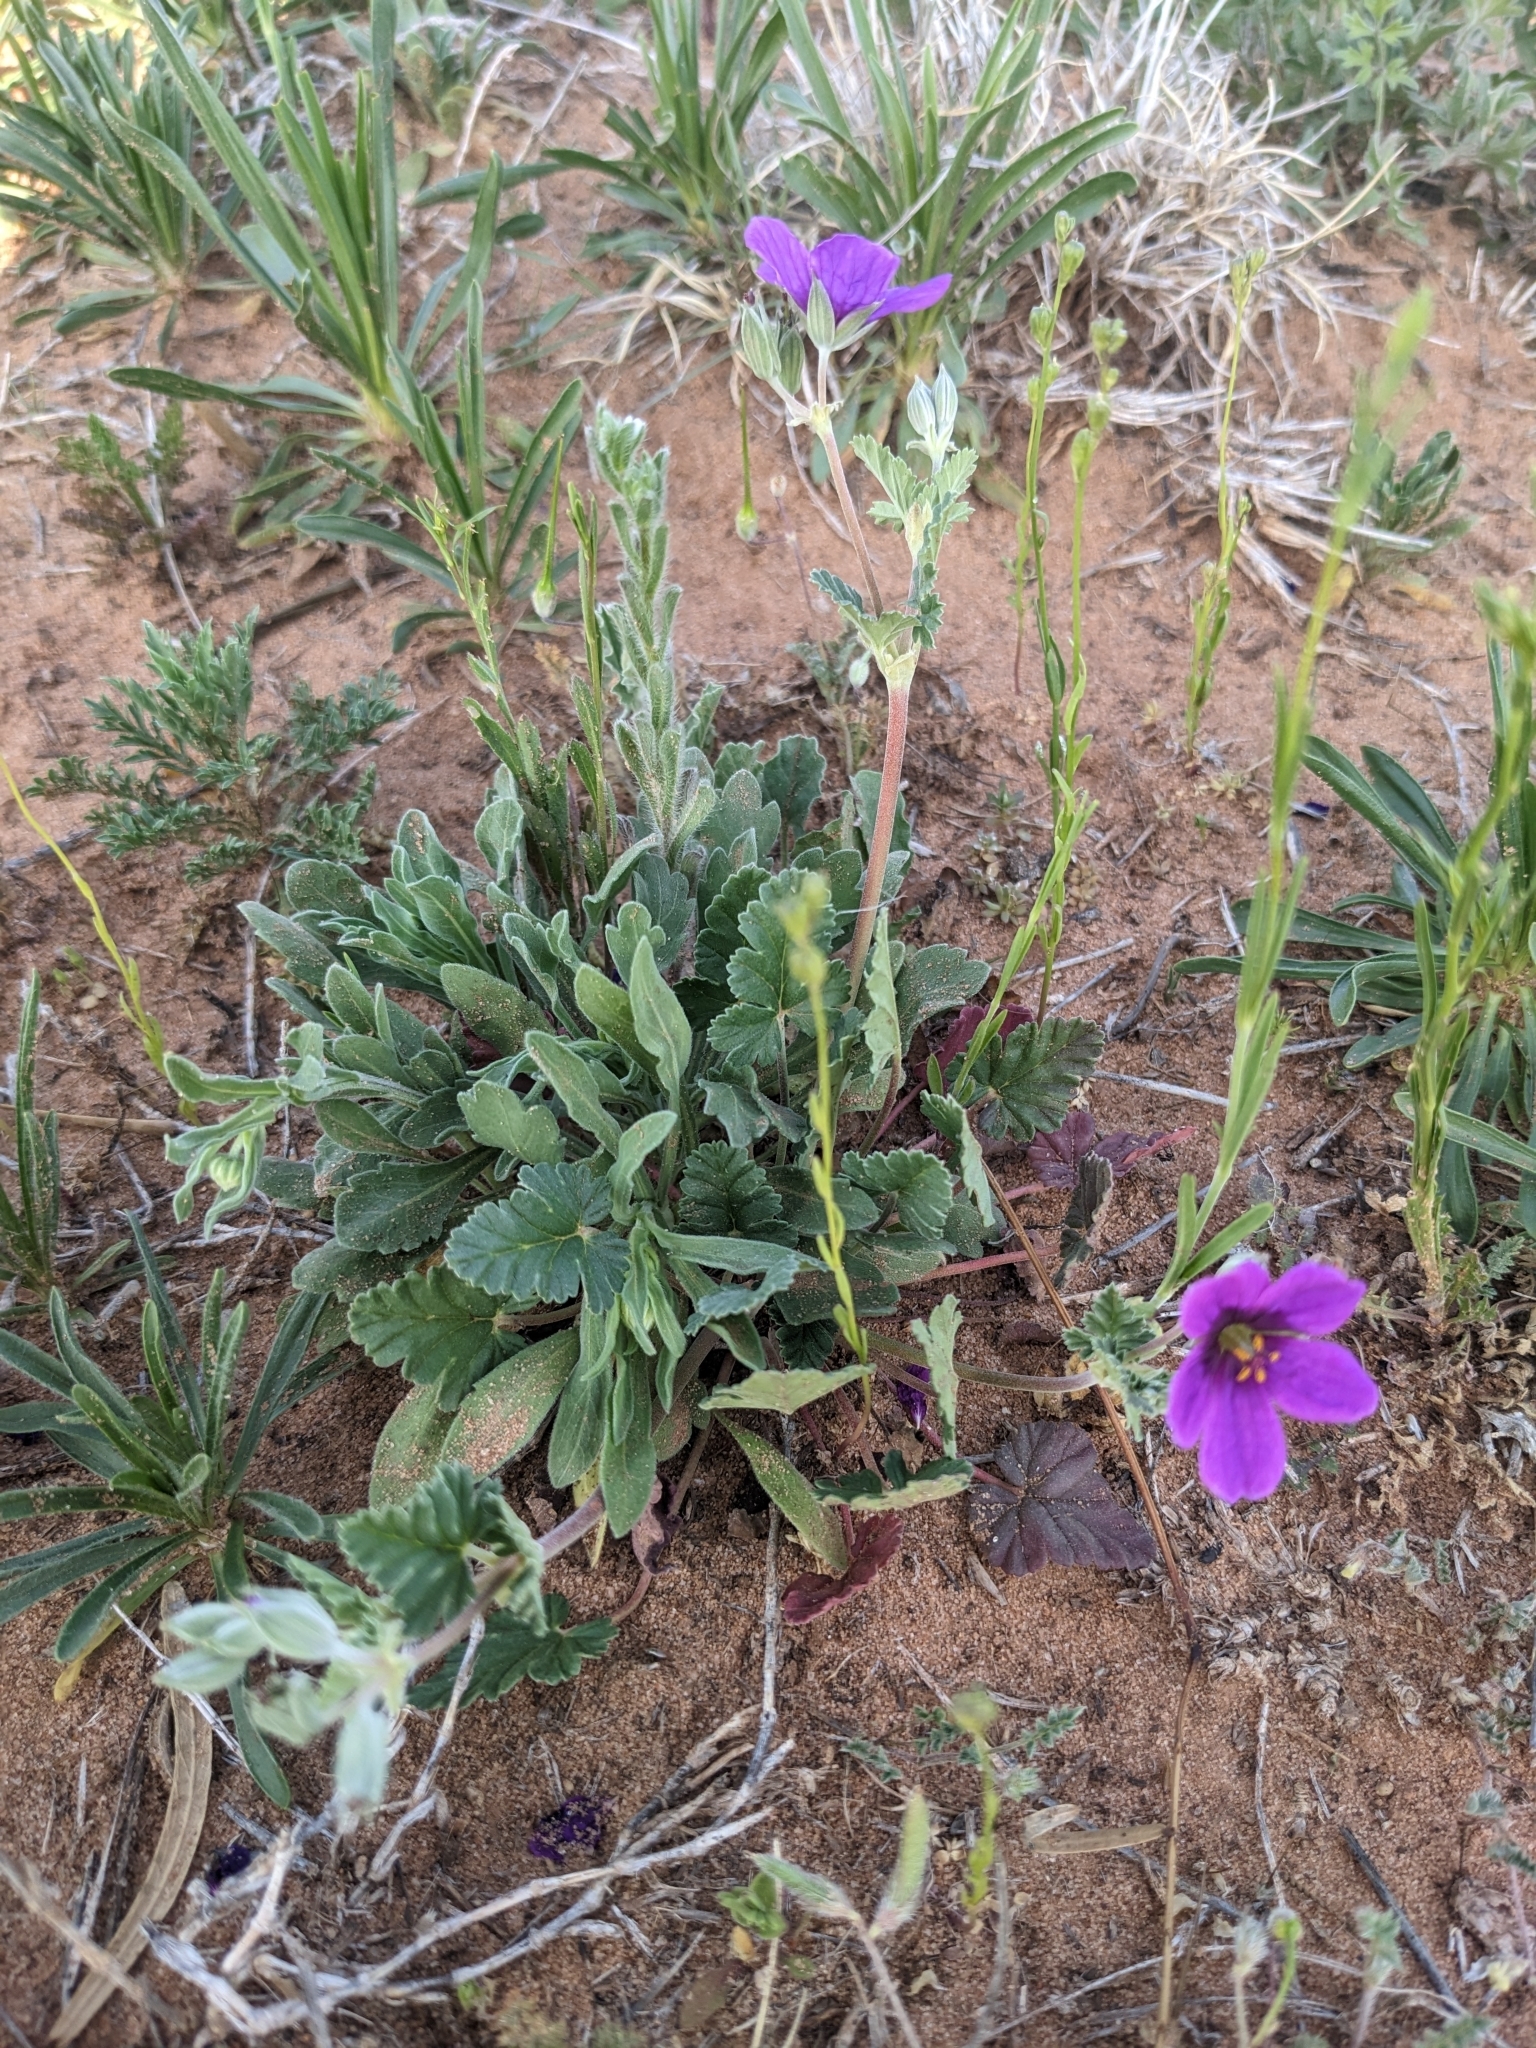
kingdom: Plantae
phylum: Tracheophyta
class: Magnoliopsida
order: Geraniales
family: Geraniaceae
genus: Erodium
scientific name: Erodium texanum
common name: Texas stork's-bill
